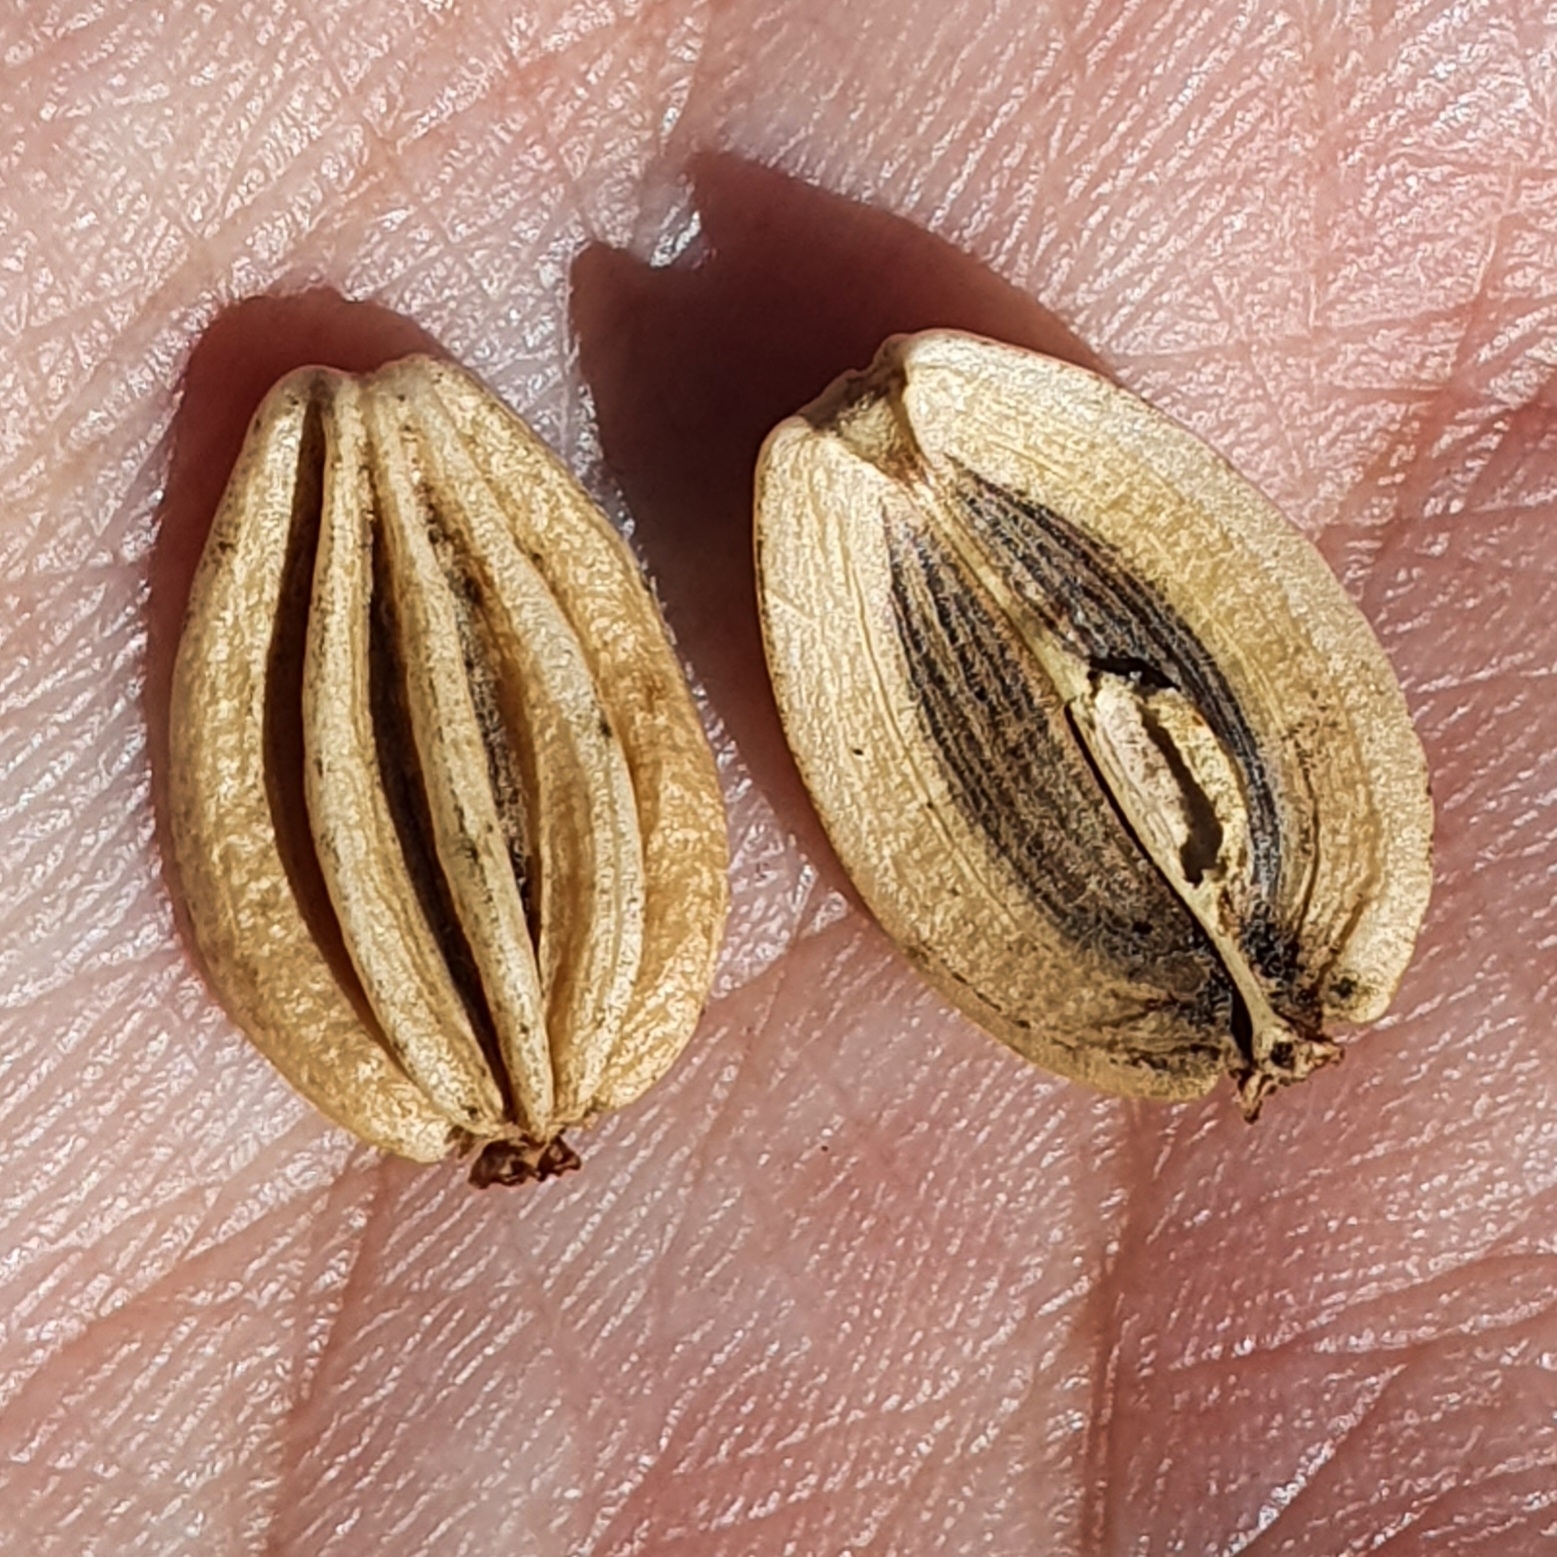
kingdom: Plantae
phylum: Tracheophyta
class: Magnoliopsida
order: Apiales
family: Apiaceae
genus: Ferulago
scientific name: Ferulago lutea
